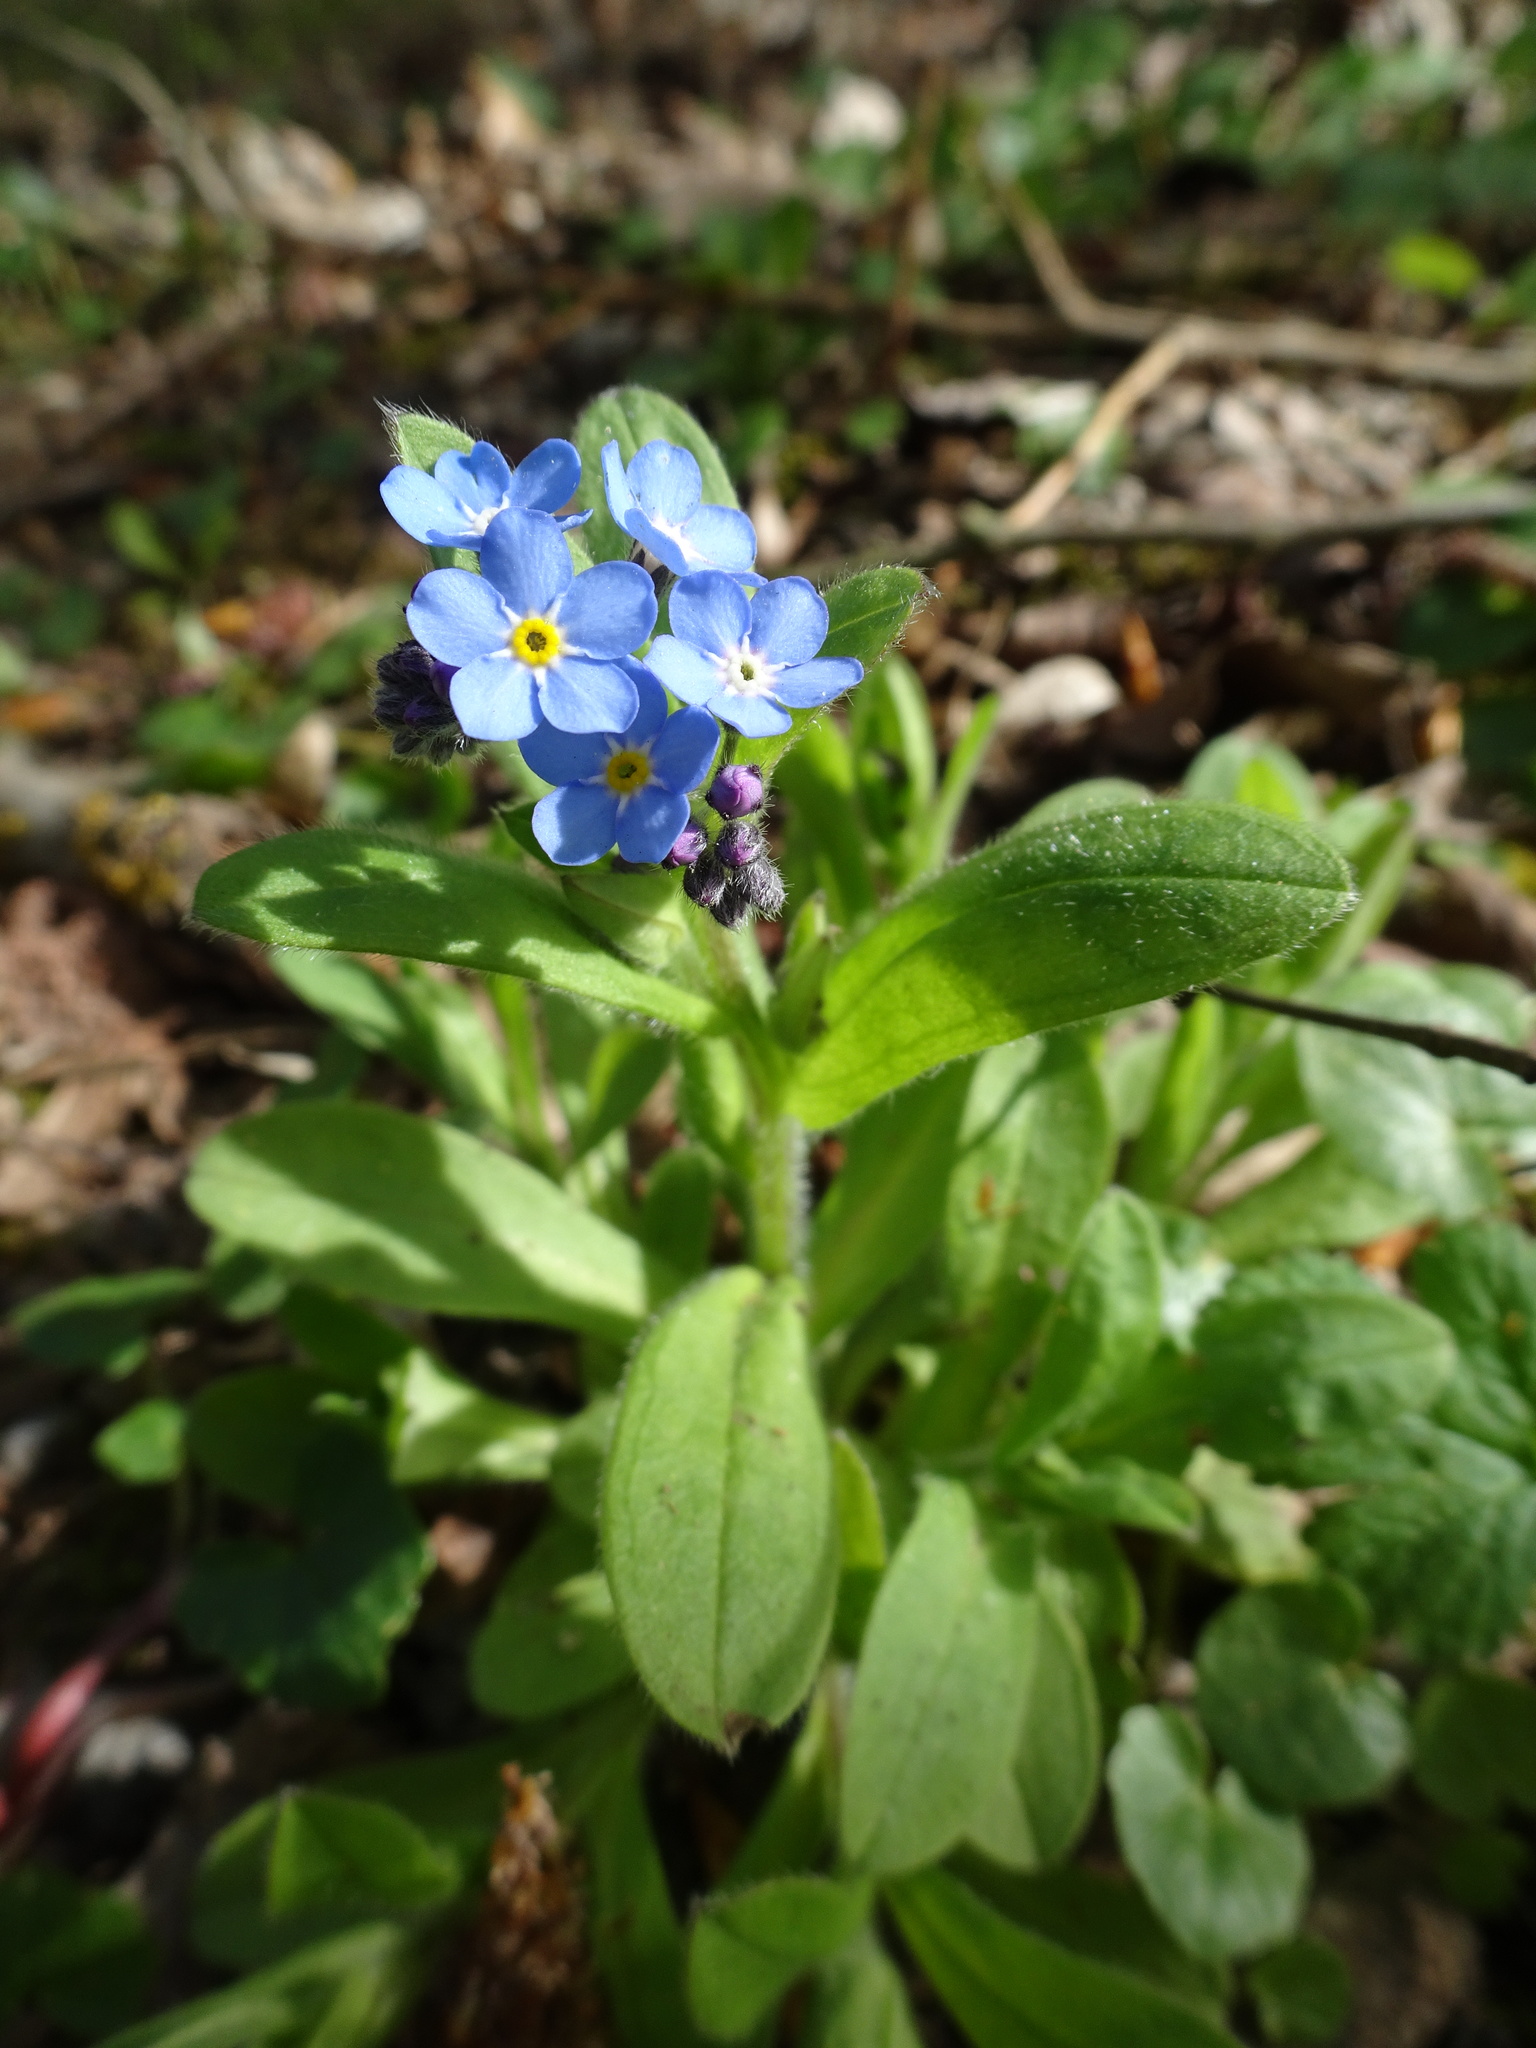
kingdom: Plantae
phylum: Tracheophyta
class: Magnoliopsida
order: Boraginales
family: Boraginaceae
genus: Myosotis
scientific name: Myosotis sylvatica
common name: Wood forget-me-not
